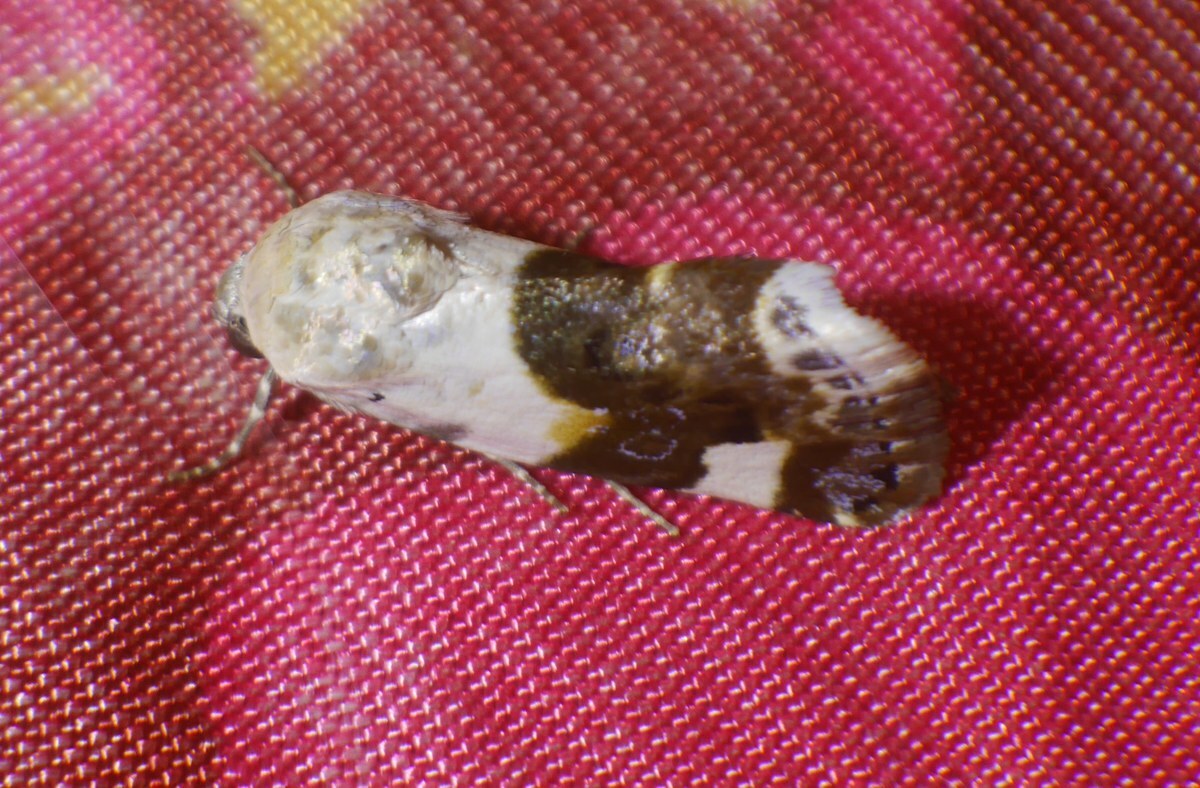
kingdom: Animalia
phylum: Arthropoda
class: Insecta
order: Lepidoptera
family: Noctuidae
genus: Acontia
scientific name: Acontia lucida
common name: Pale shoulder
